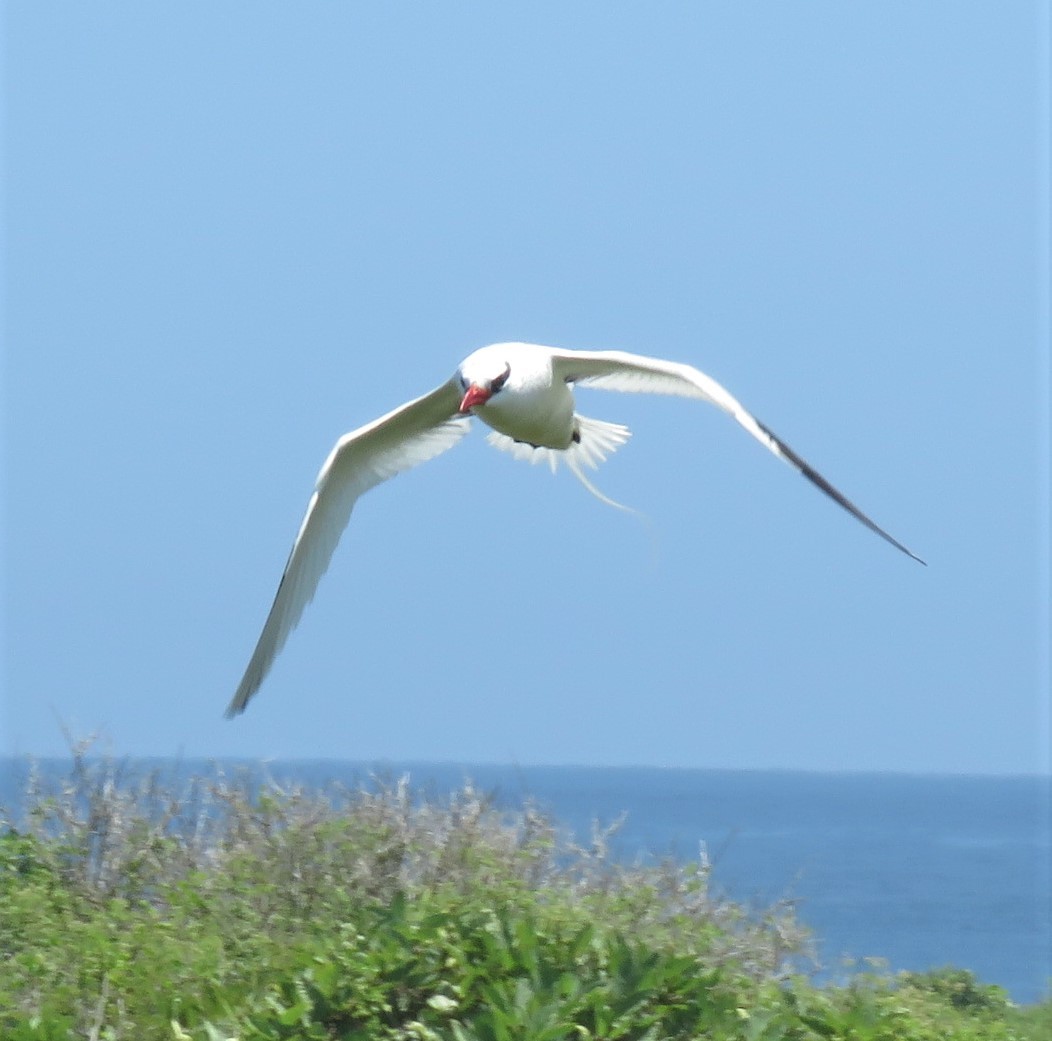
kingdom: Animalia
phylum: Chordata
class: Aves
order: Phaethontiformes
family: Phaethontidae
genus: Phaethon
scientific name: Phaethon aethereus
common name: Red-billed tropicbird
